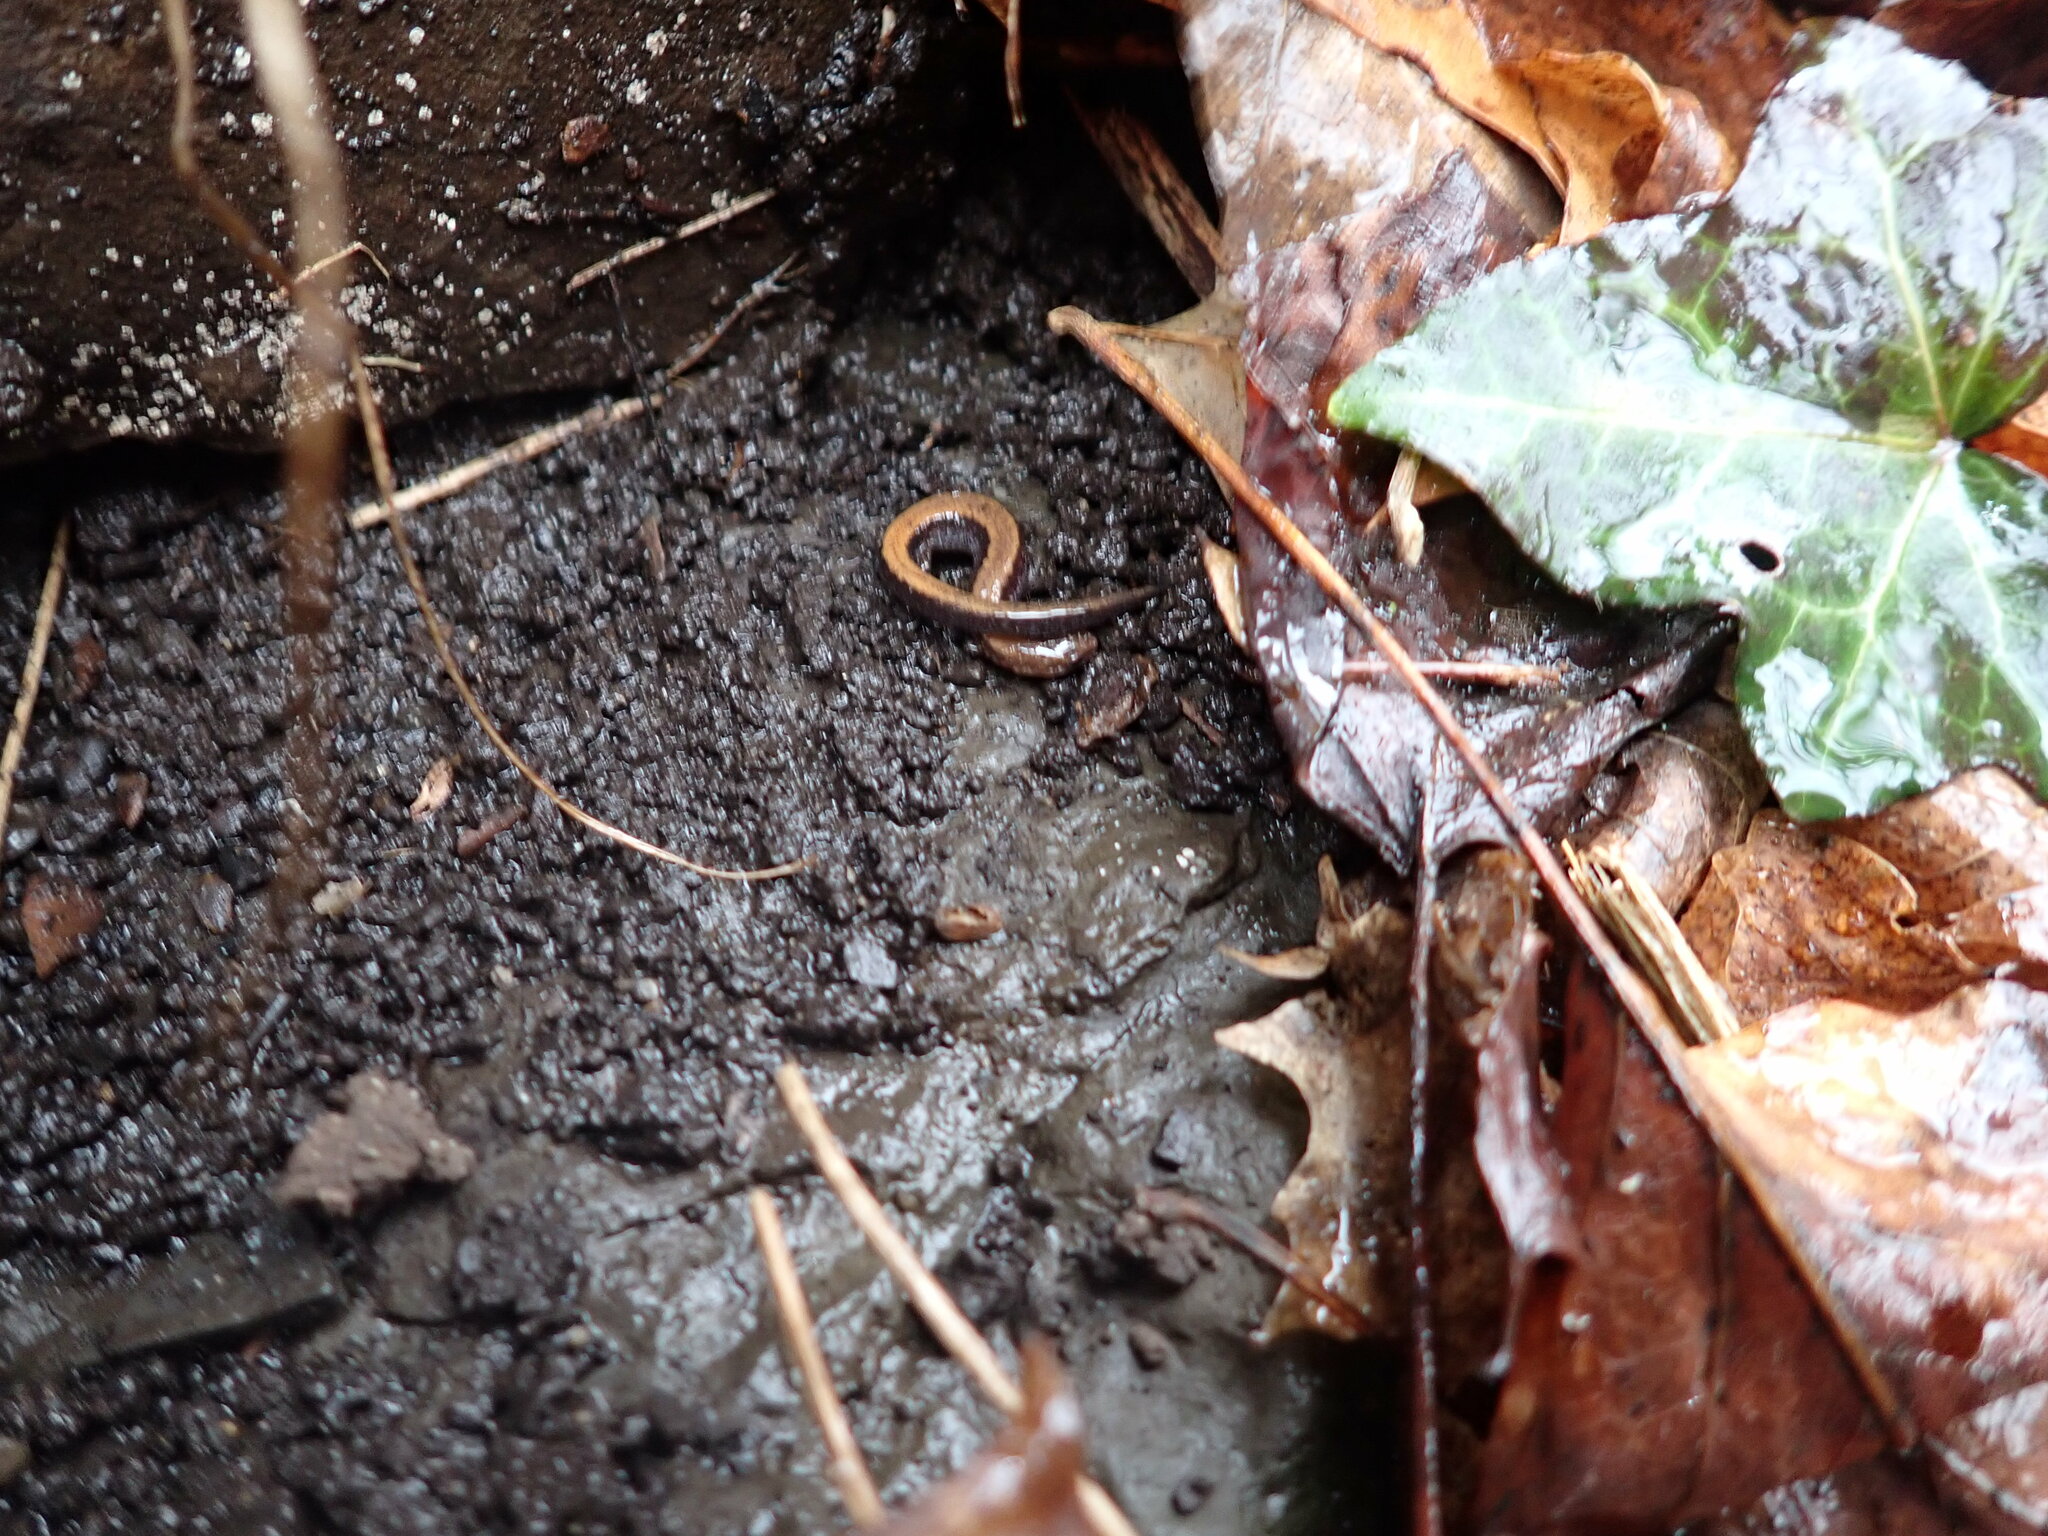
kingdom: Animalia
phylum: Chordata
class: Amphibia
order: Caudata
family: Plethodontidae
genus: Plethodon
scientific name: Plethodon cinereus
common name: Redback salamander
